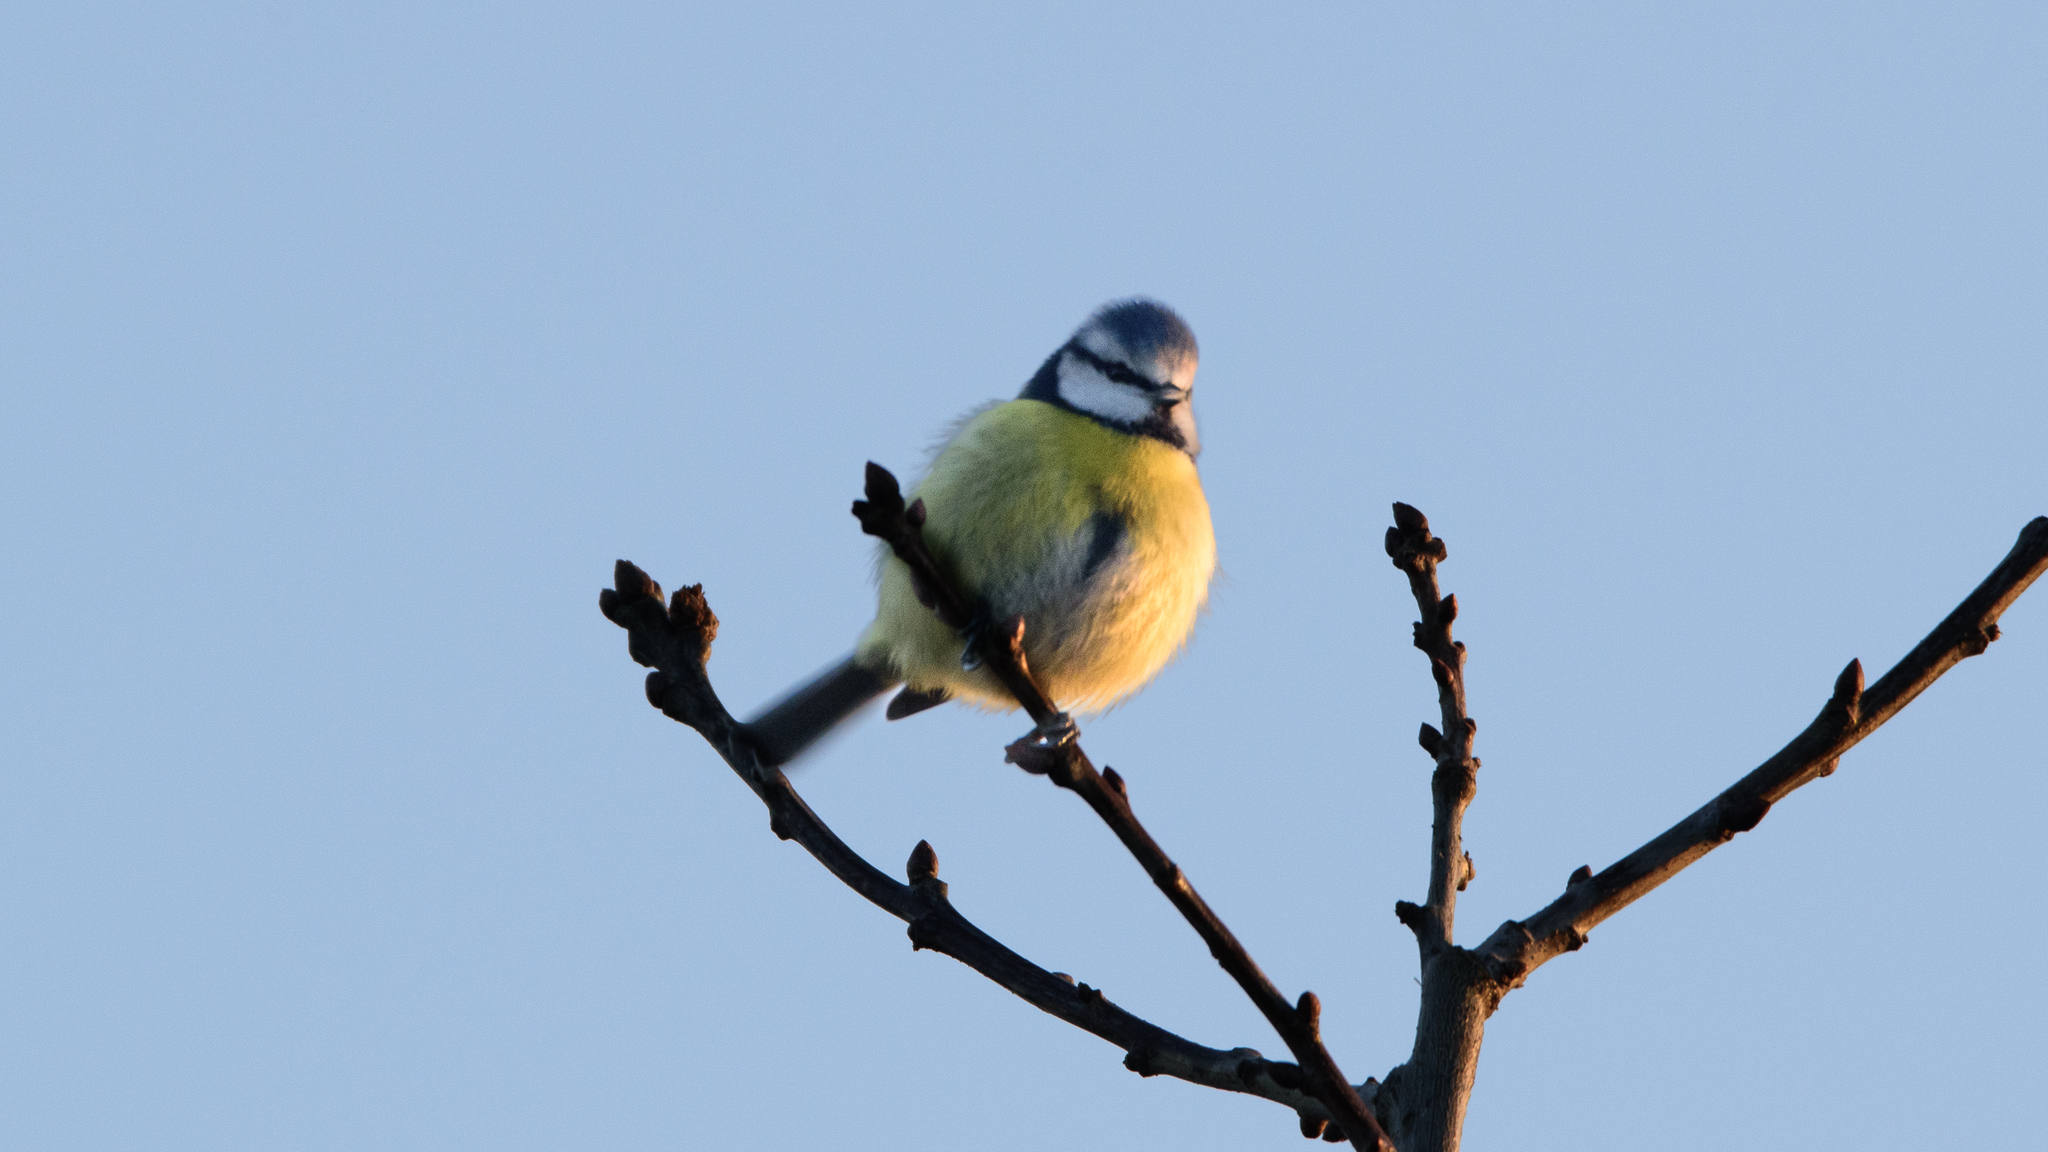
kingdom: Animalia
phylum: Chordata
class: Aves
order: Passeriformes
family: Paridae
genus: Cyanistes
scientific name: Cyanistes caeruleus
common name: Eurasian blue tit
